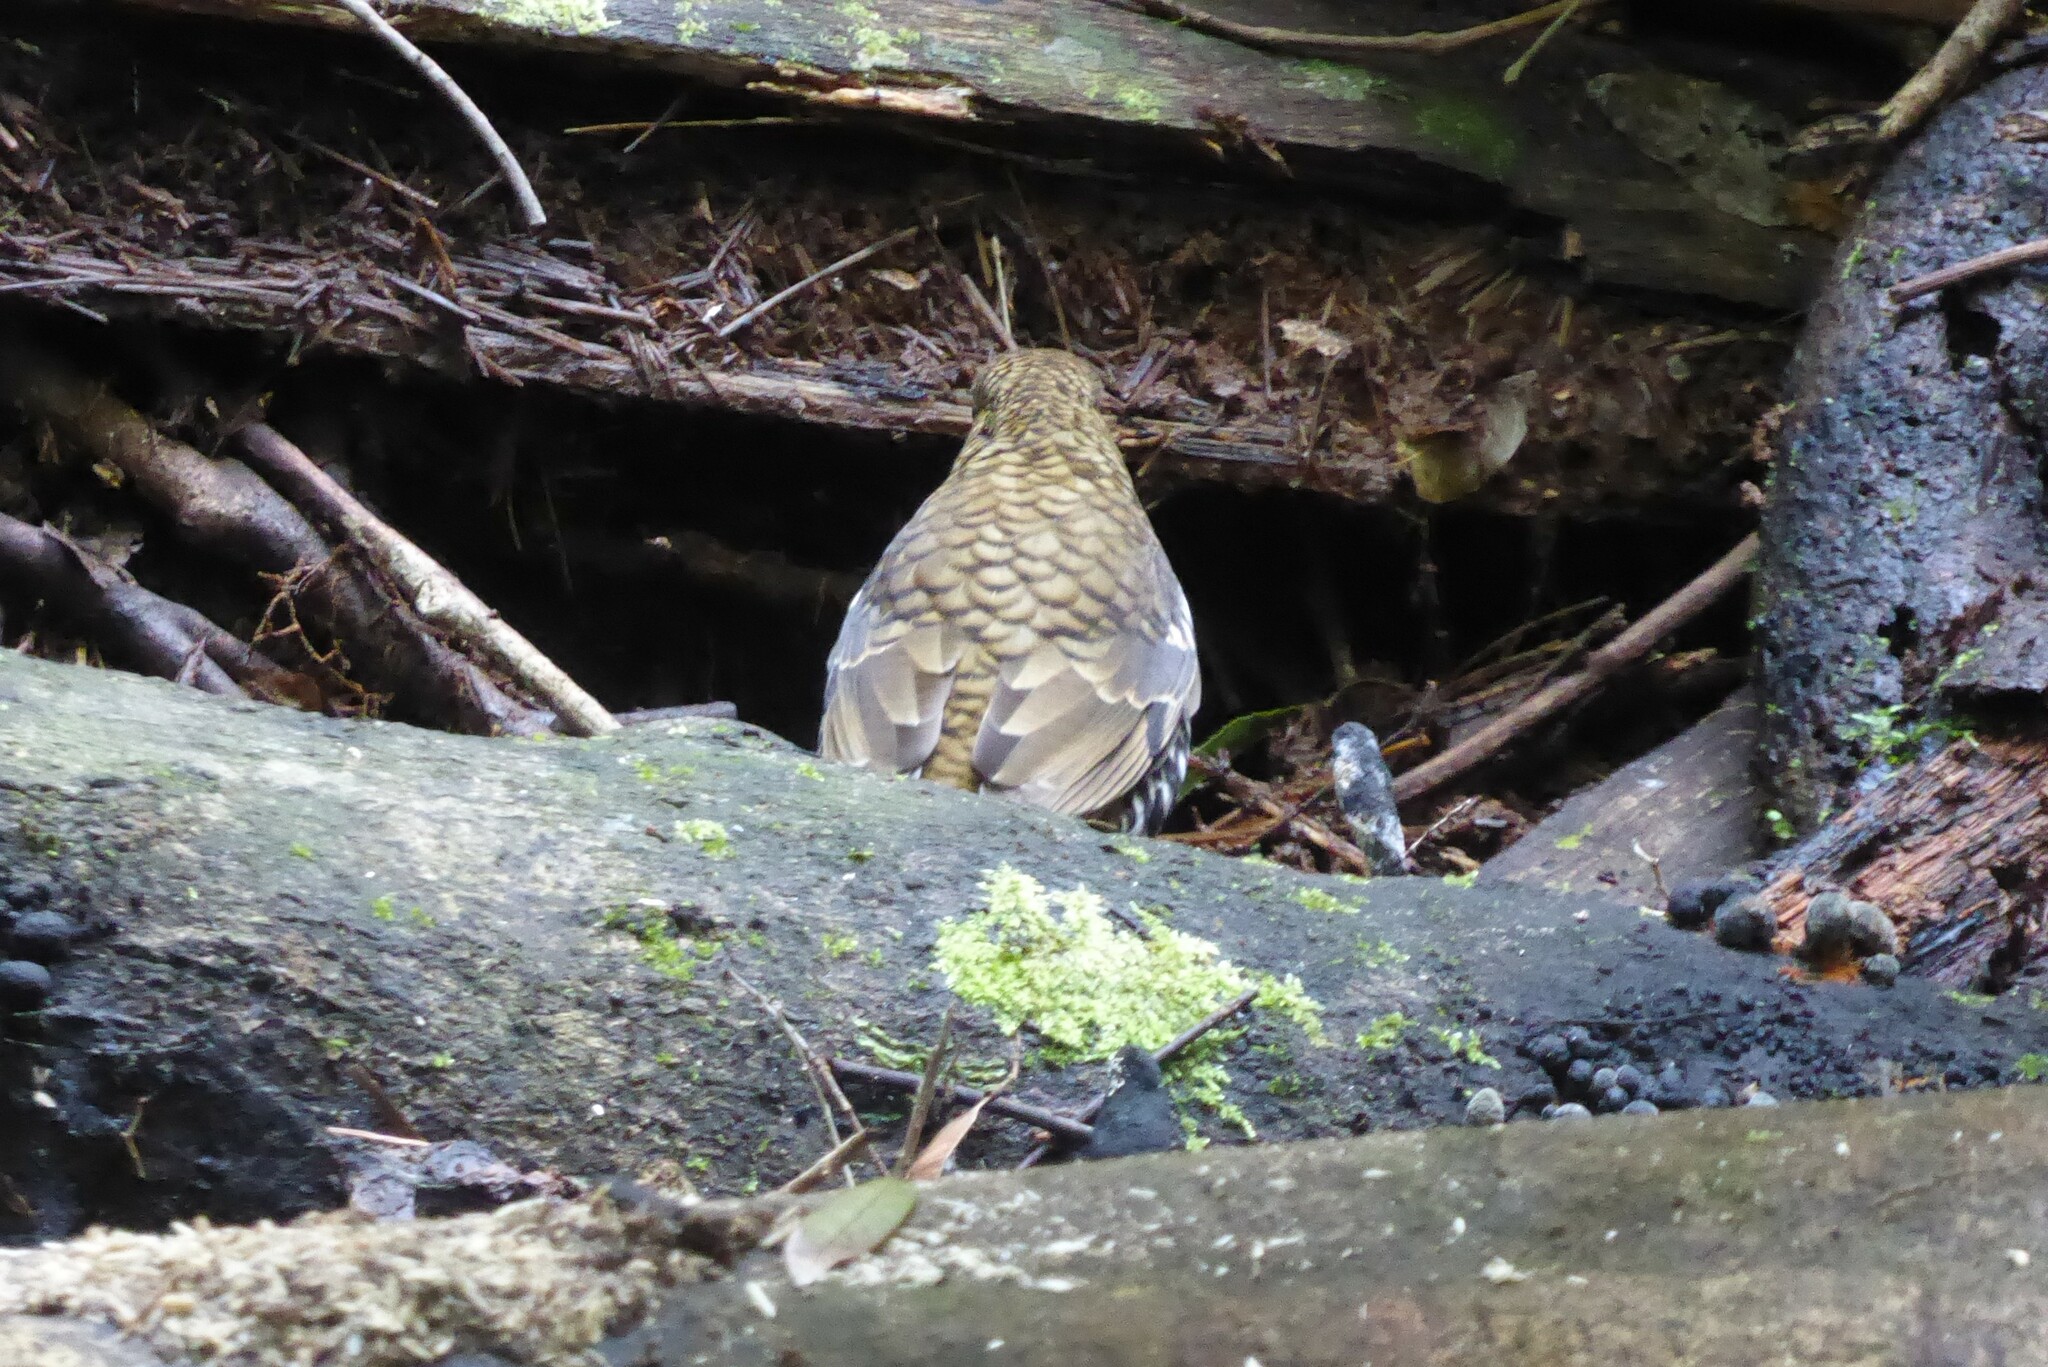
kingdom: Animalia
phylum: Chordata
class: Aves
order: Passeriformes
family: Turdidae
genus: Zoothera
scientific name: Zoothera heinei
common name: Russet-tailed thrush
